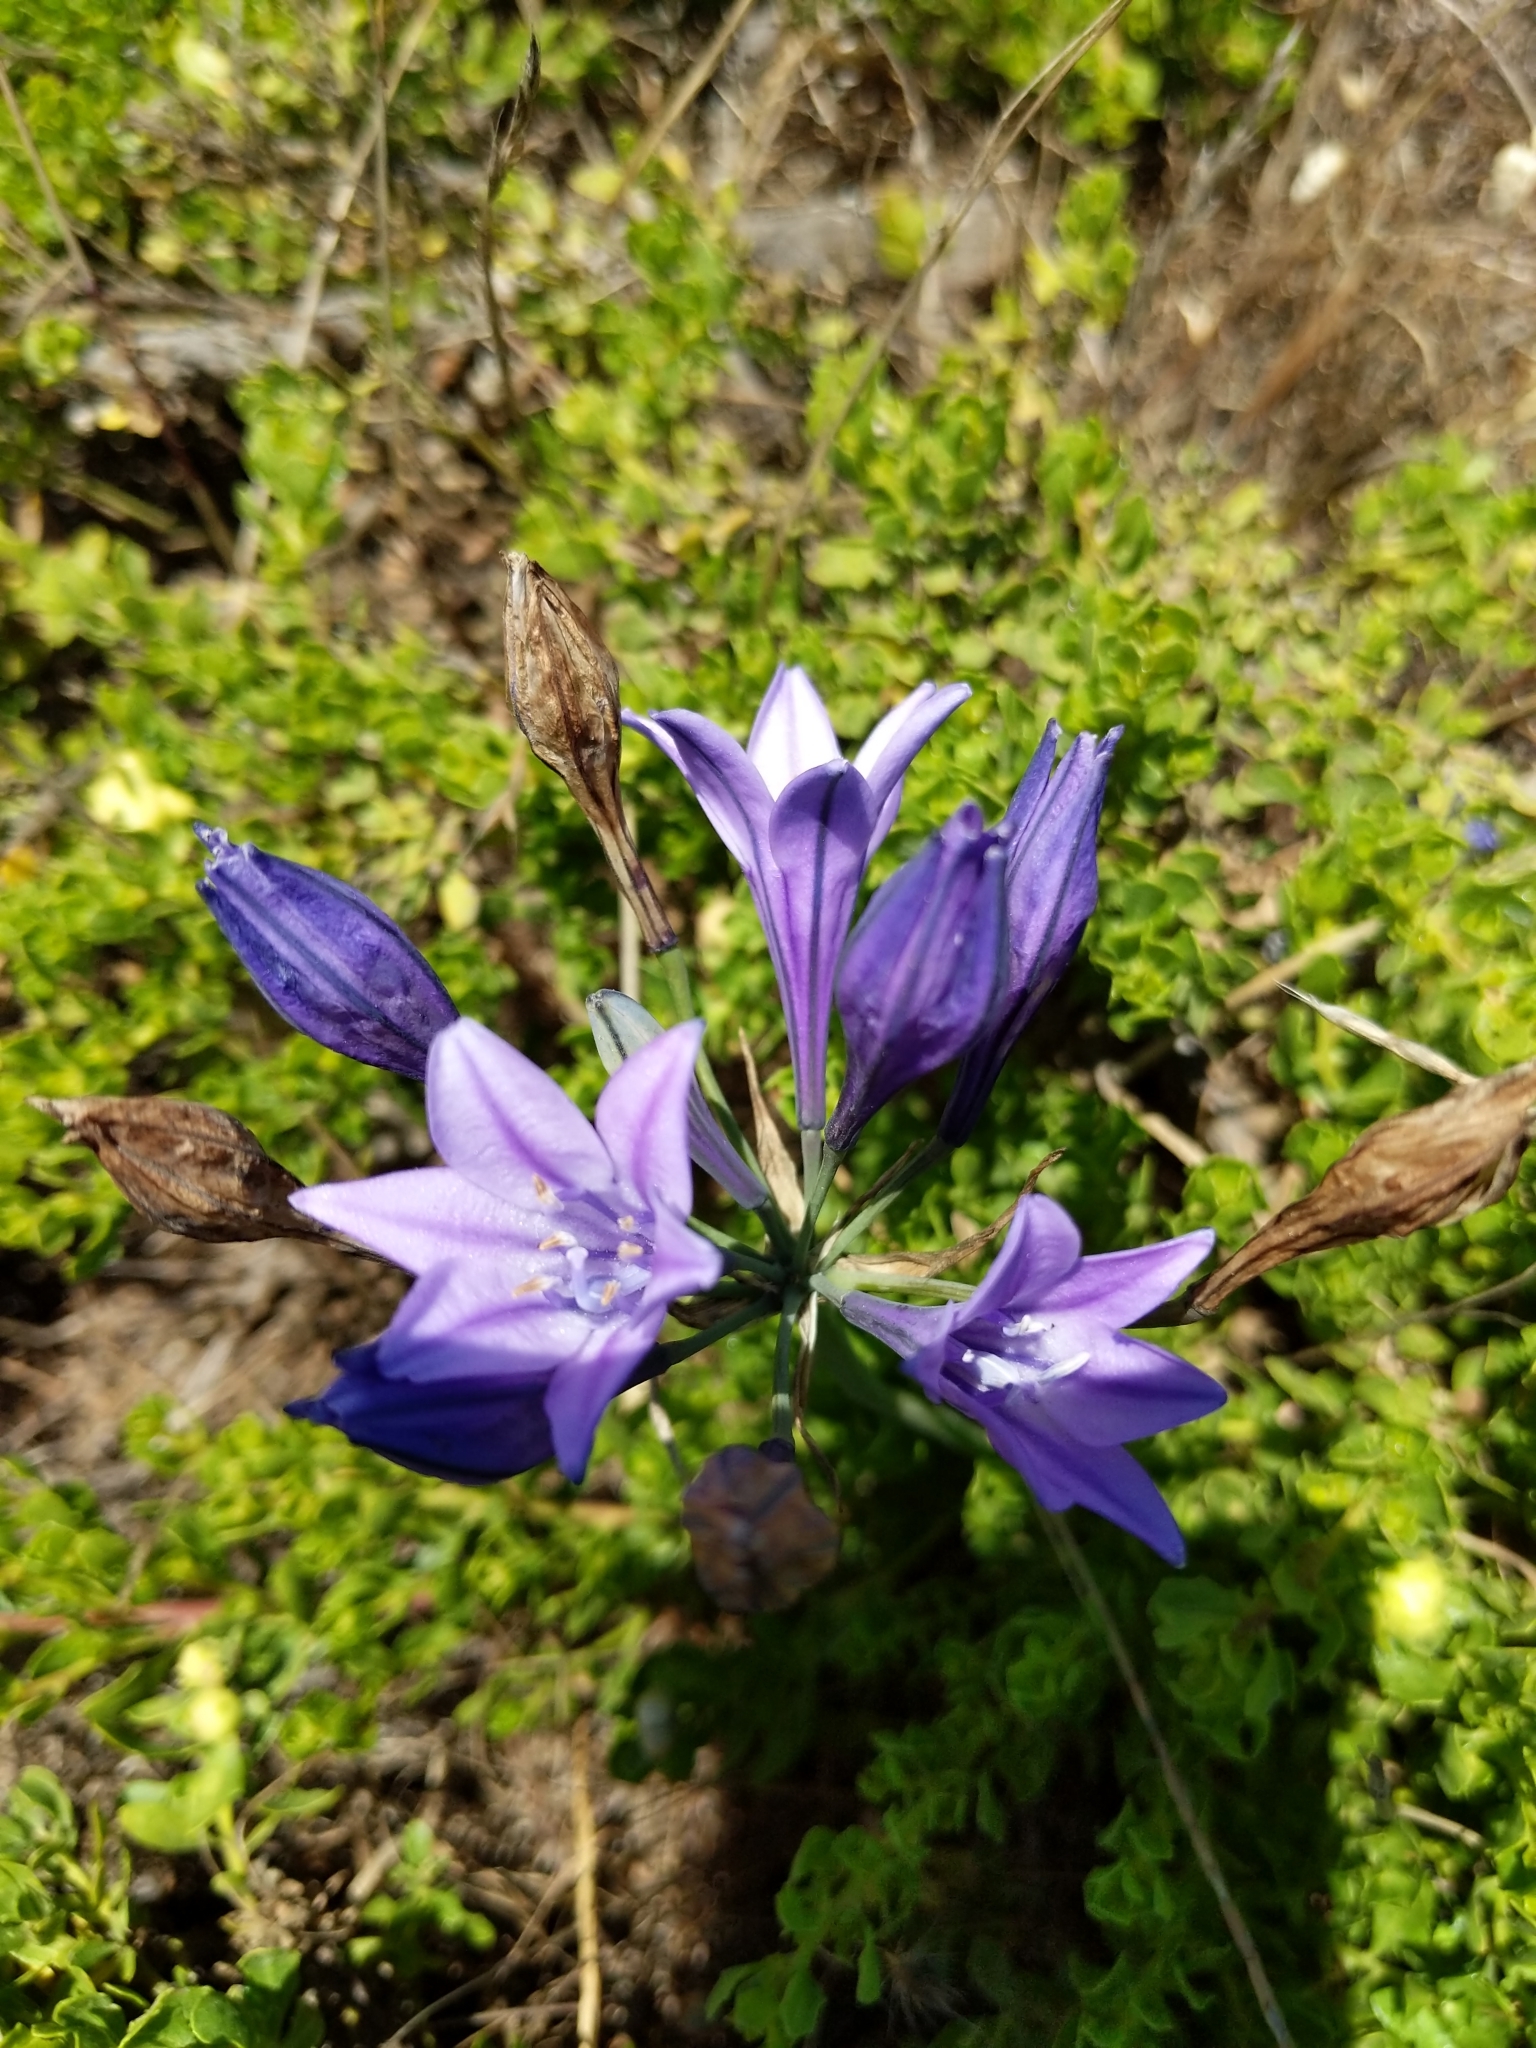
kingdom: Plantae
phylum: Tracheophyta
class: Liliopsida
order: Asparagales
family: Asparagaceae
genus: Triteleia
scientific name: Triteleia laxa
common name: Triplet-lily
